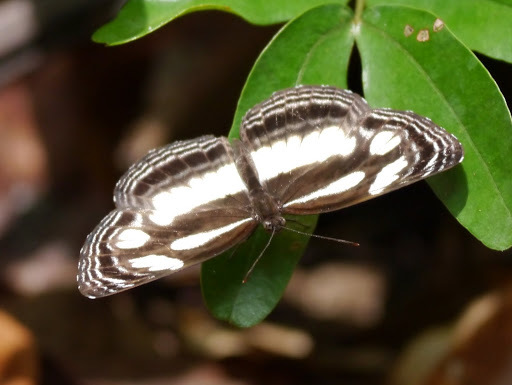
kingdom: Animalia
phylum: Arthropoda
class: Insecta
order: Lepidoptera
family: Nymphalidae
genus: Neptis
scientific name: Neptis nicoteles
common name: Clubbed sailer
